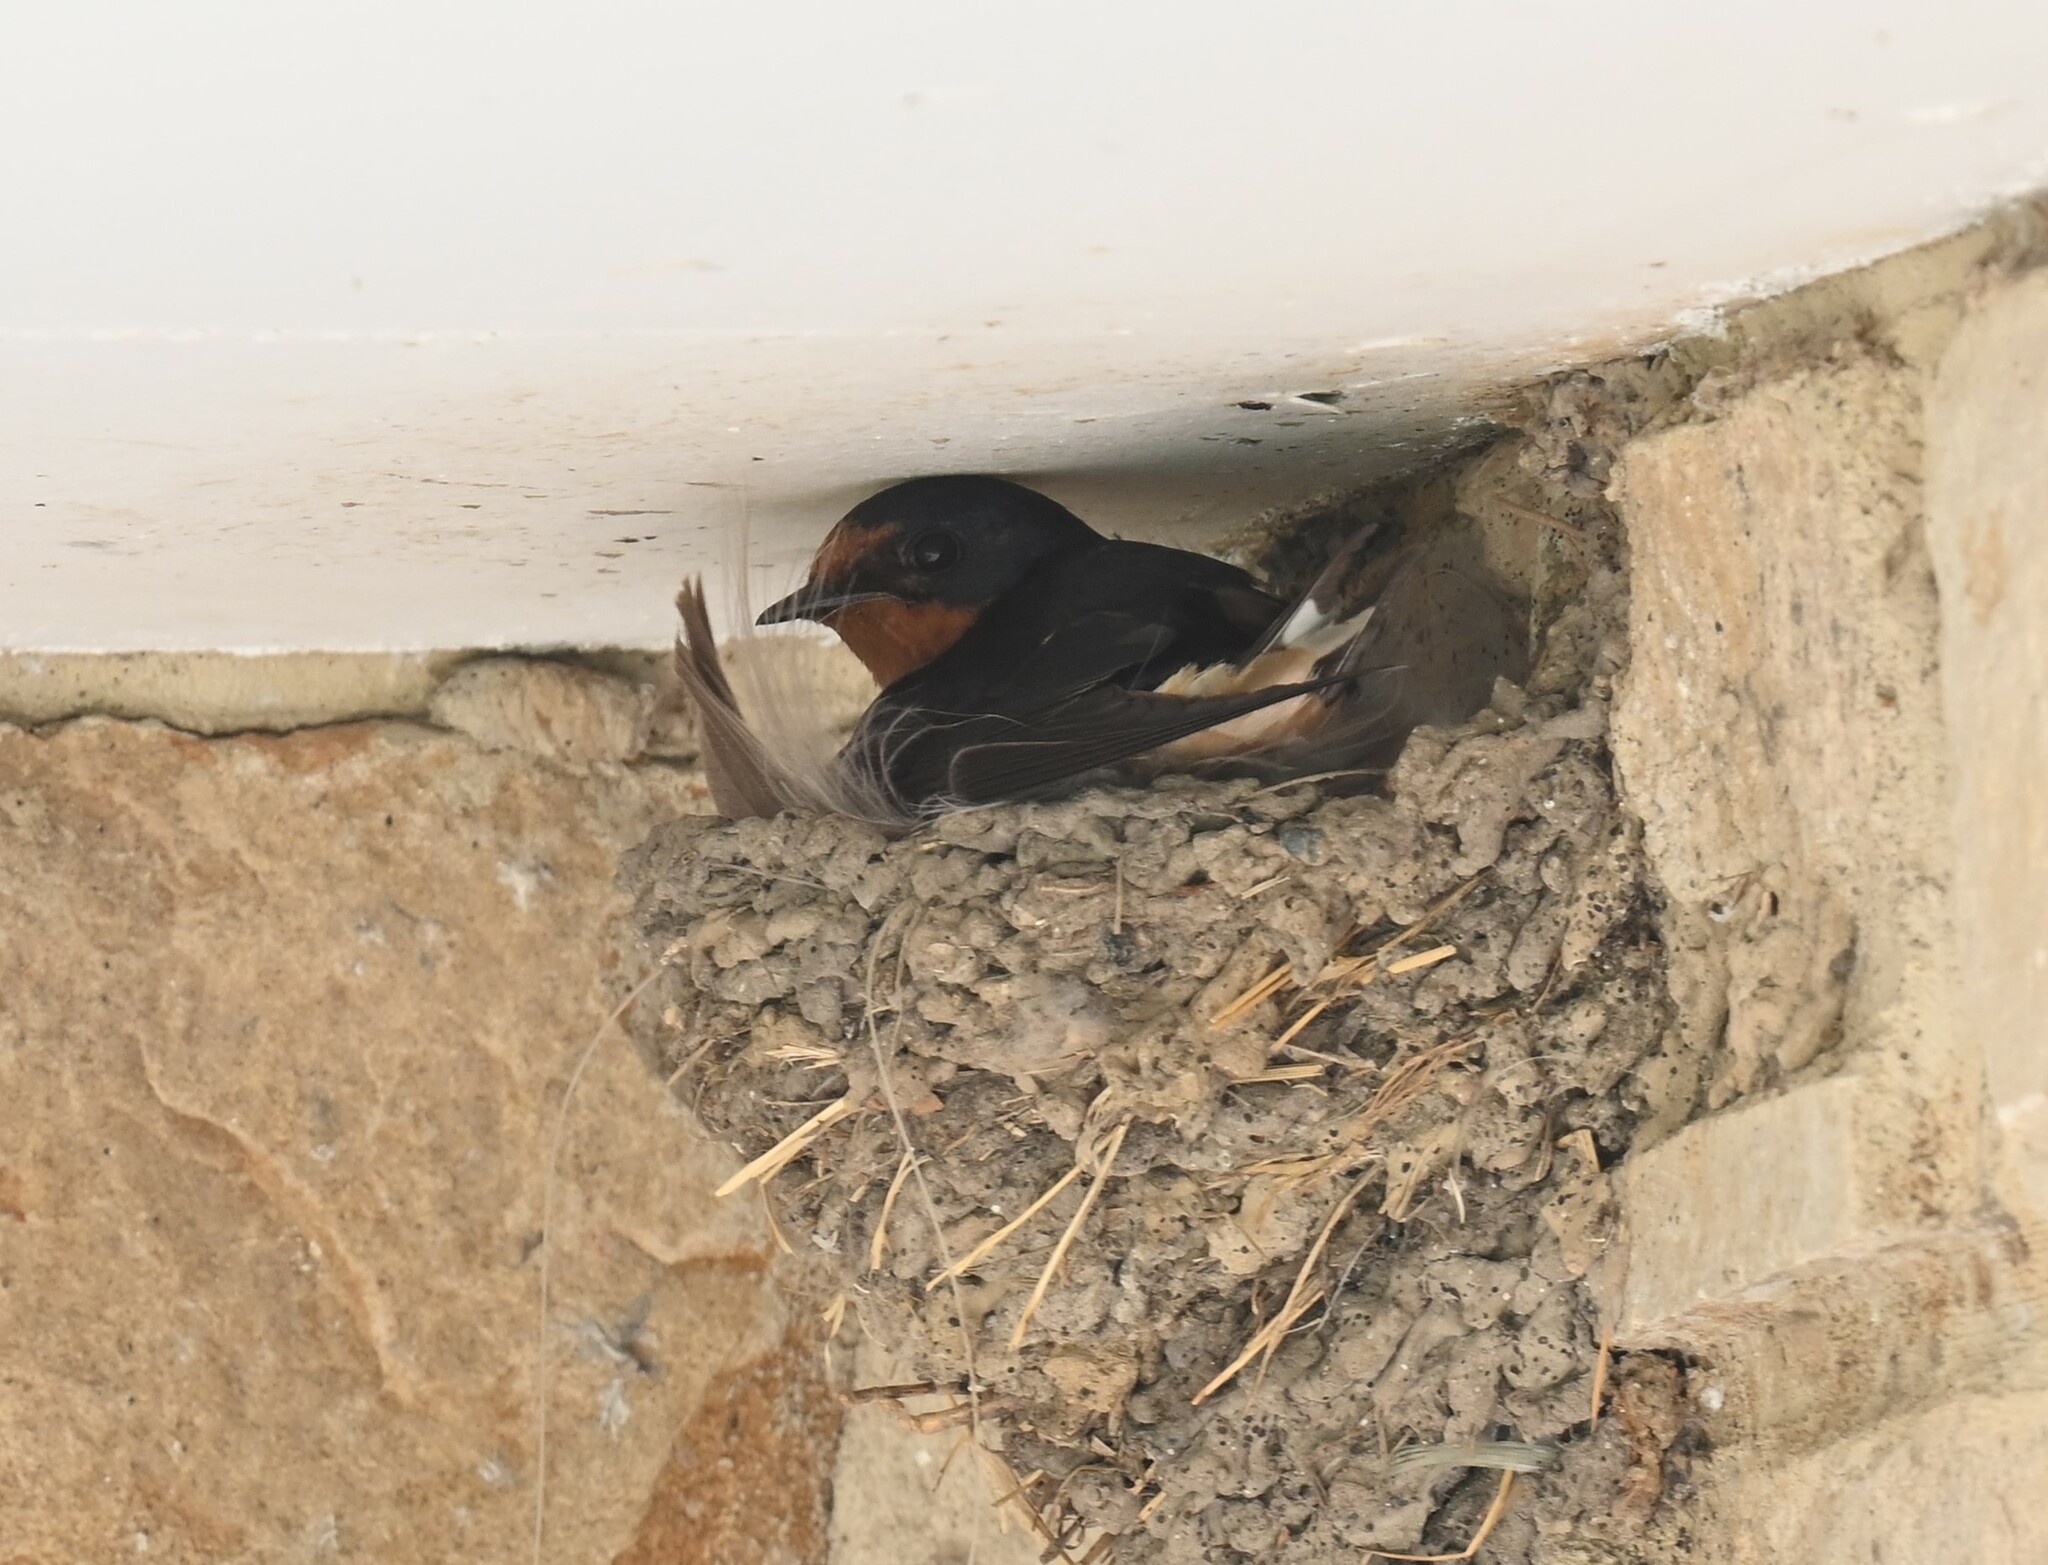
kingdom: Animalia
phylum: Chordata
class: Aves
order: Passeriformes
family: Hirundinidae
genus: Hirundo
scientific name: Hirundo rustica
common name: Barn swallow
